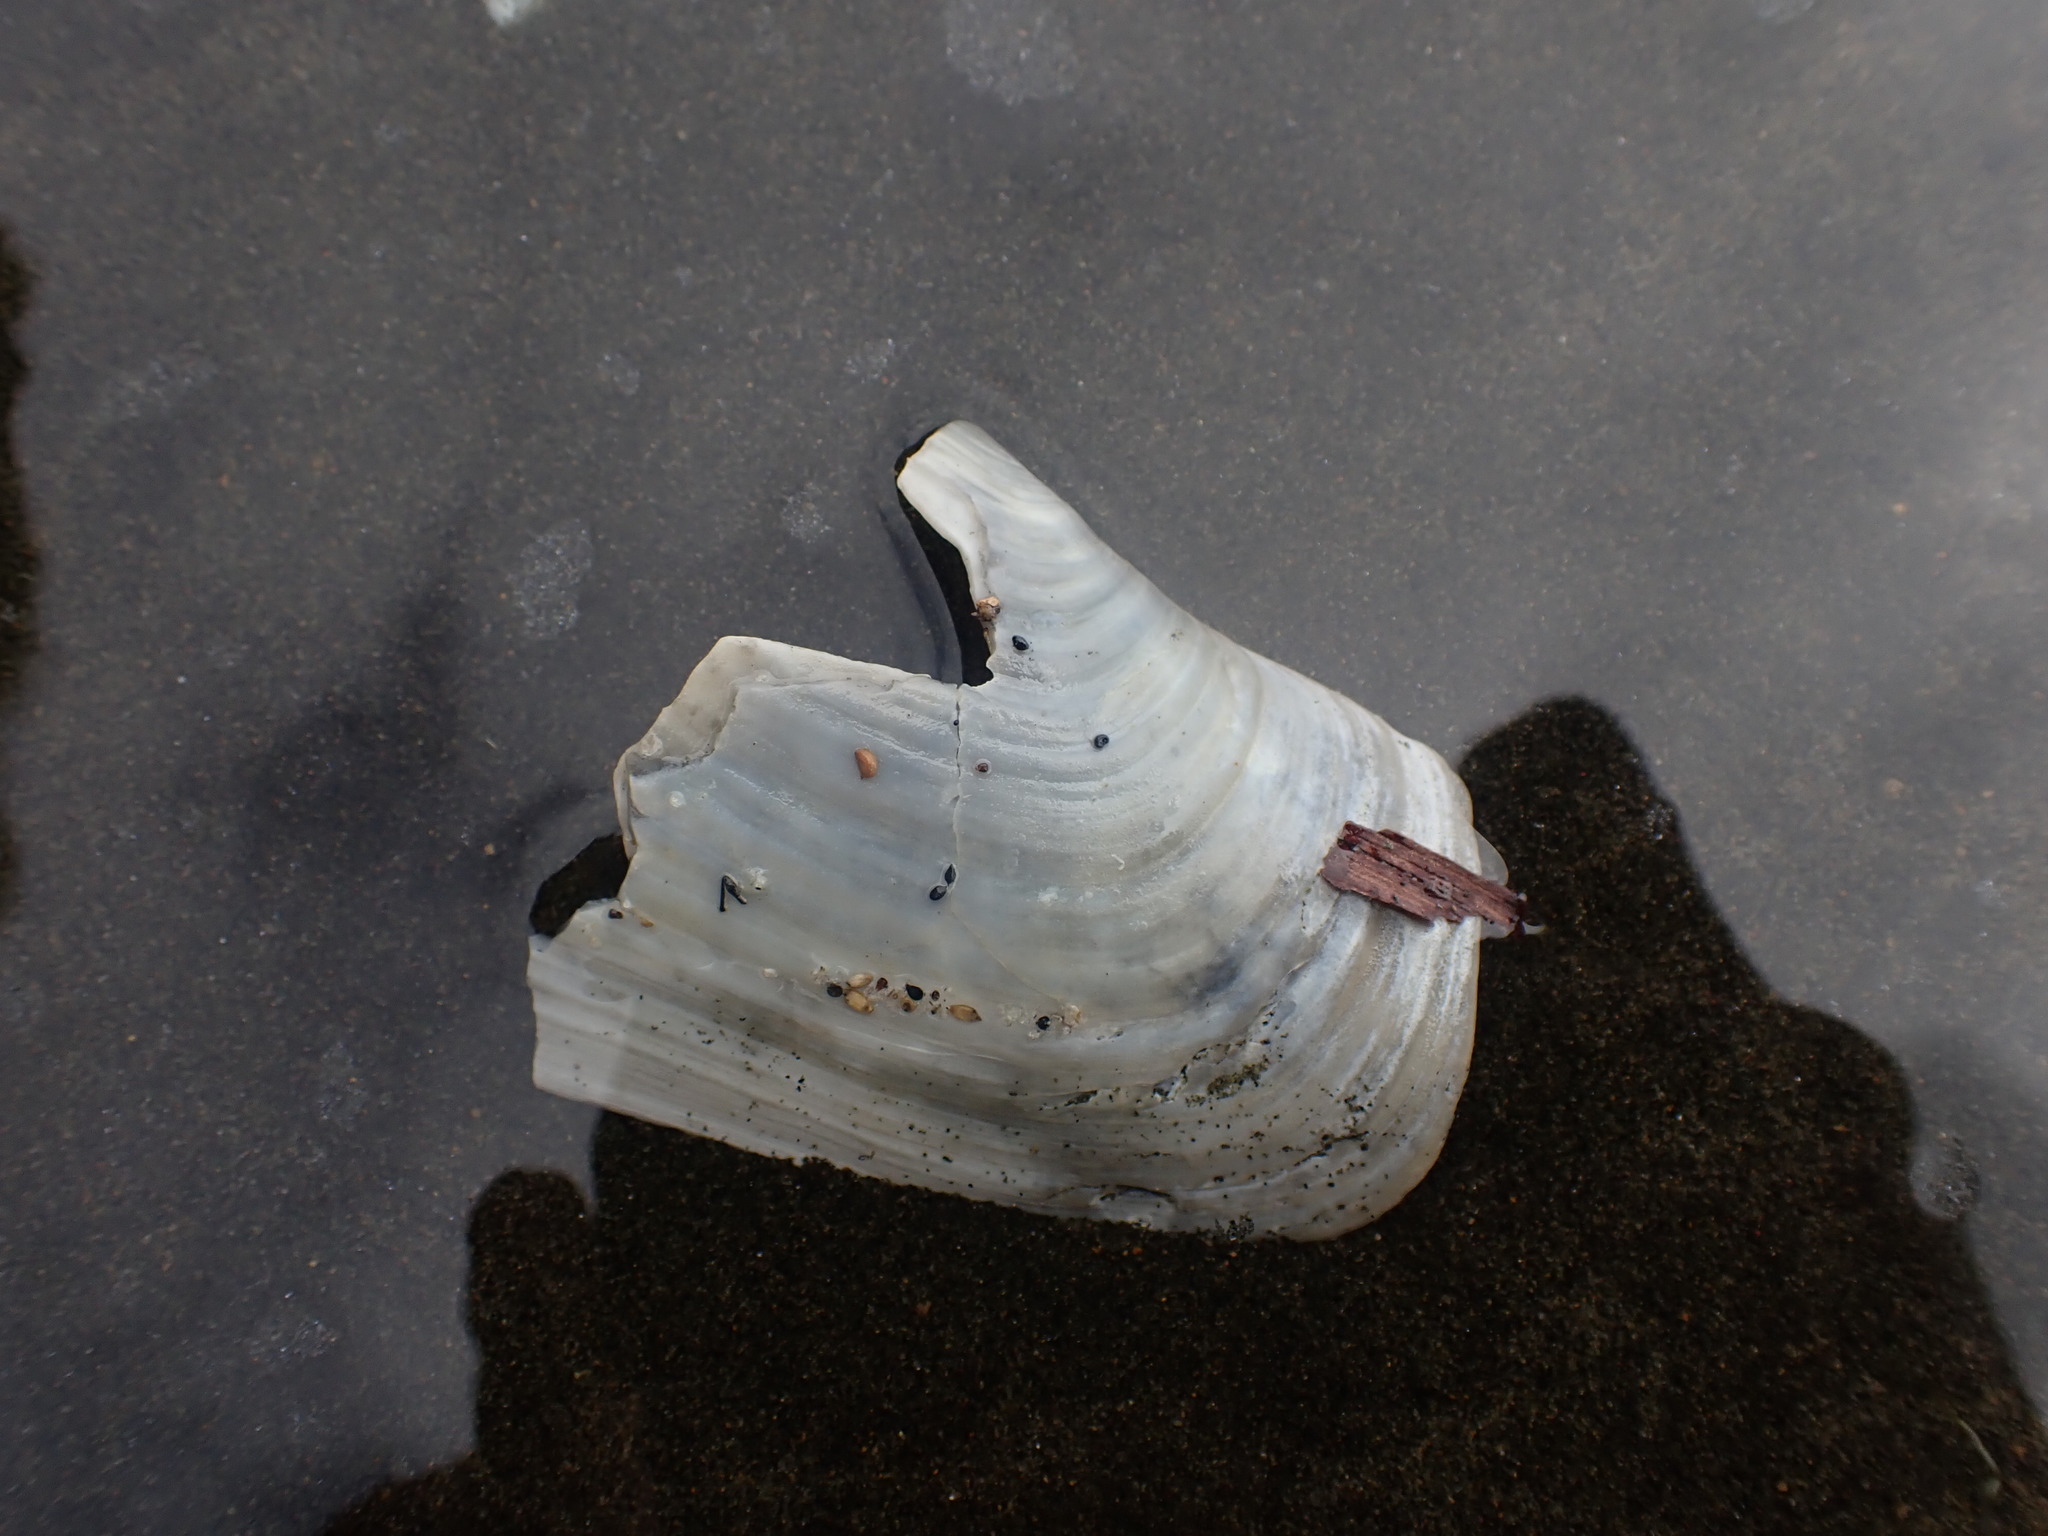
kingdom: Animalia
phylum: Mollusca
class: Bivalvia
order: Adapedonta
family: Hiatellidae
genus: Panopea
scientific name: Panopea zelandica
